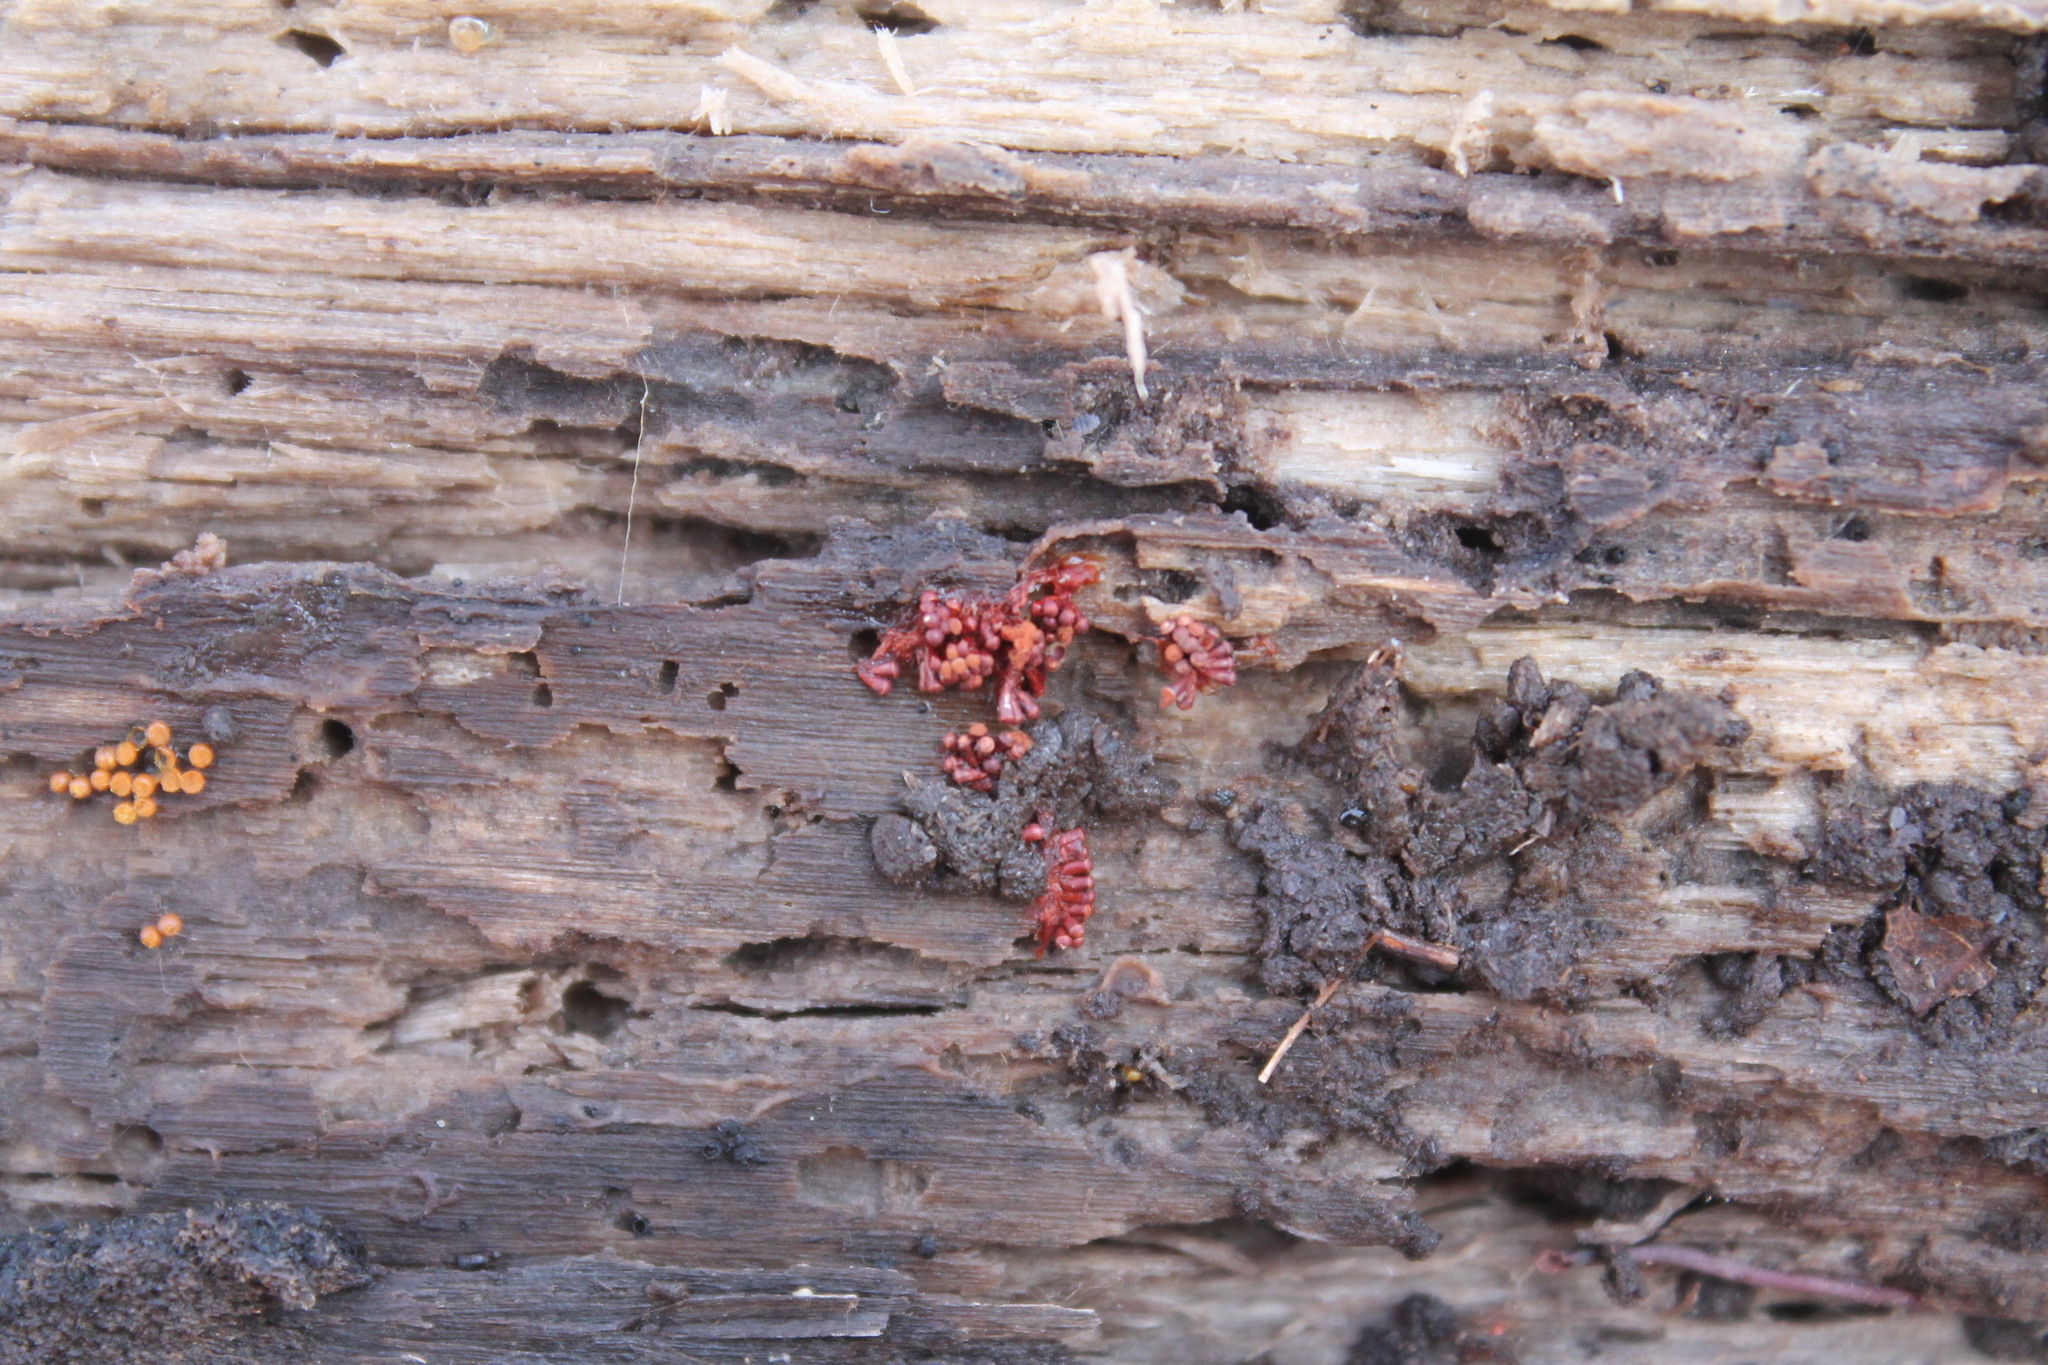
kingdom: Protozoa
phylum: Mycetozoa
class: Myxomycetes
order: Trichiales
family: Trichiaceae
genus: Metatrichia
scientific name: Metatrichia vesparia
